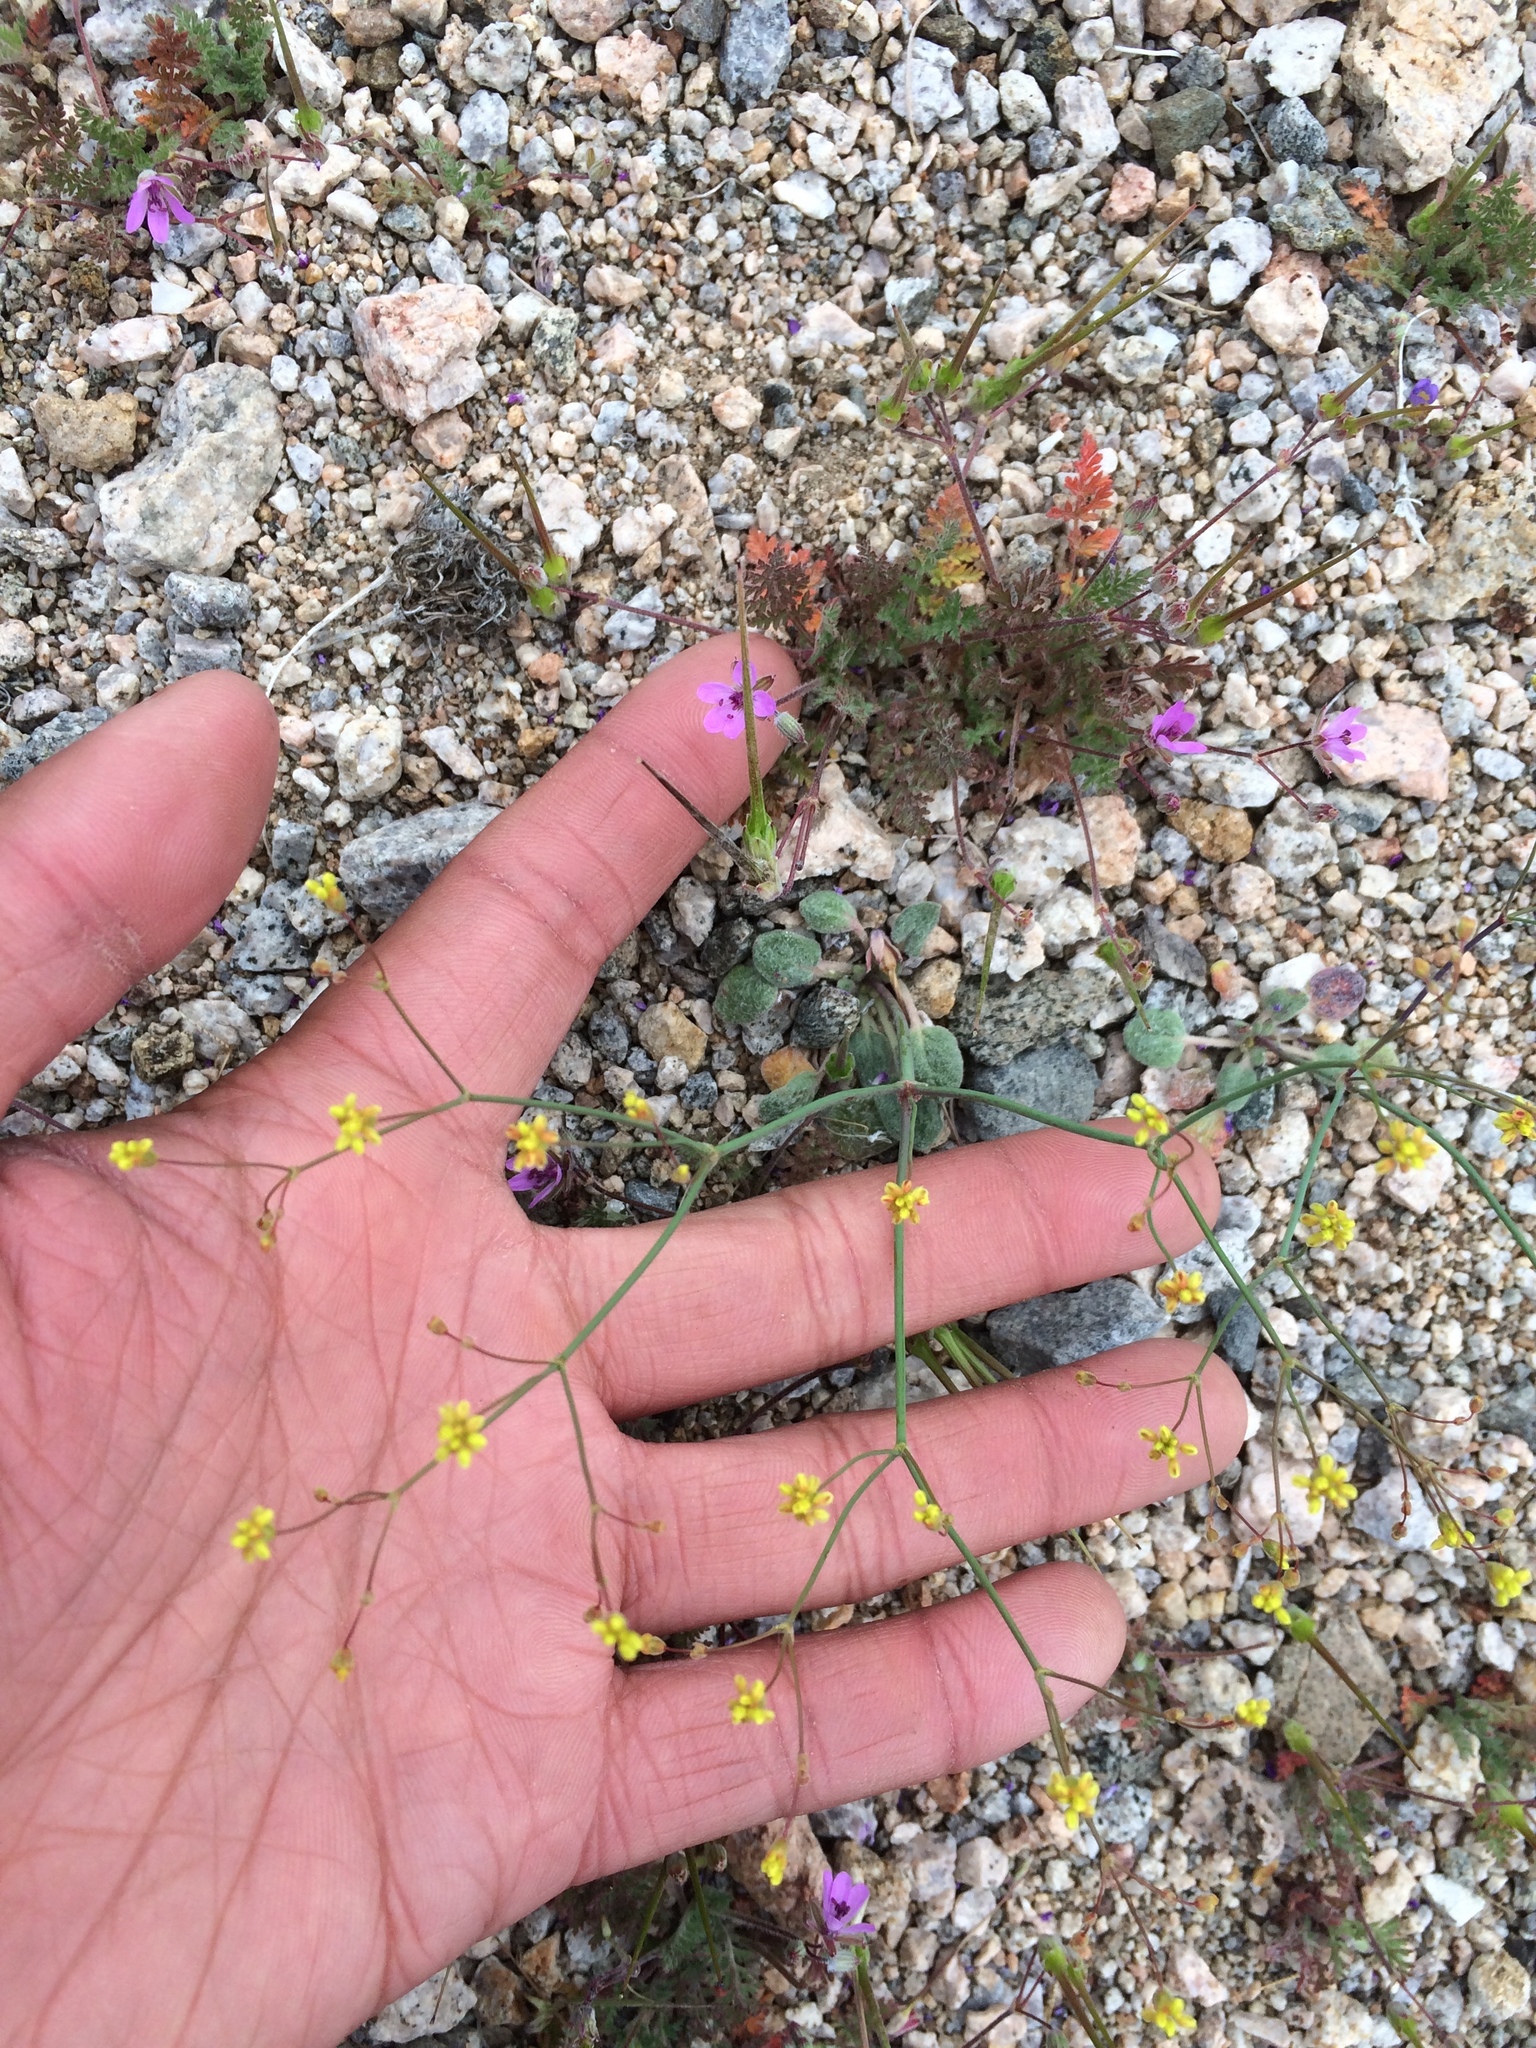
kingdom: Plantae
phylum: Tracheophyta
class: Magnoliopsida
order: Caryophyllales
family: Polygonaceae
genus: Eriogonum
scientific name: Eriogonum pusillum
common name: Yellow turbans
